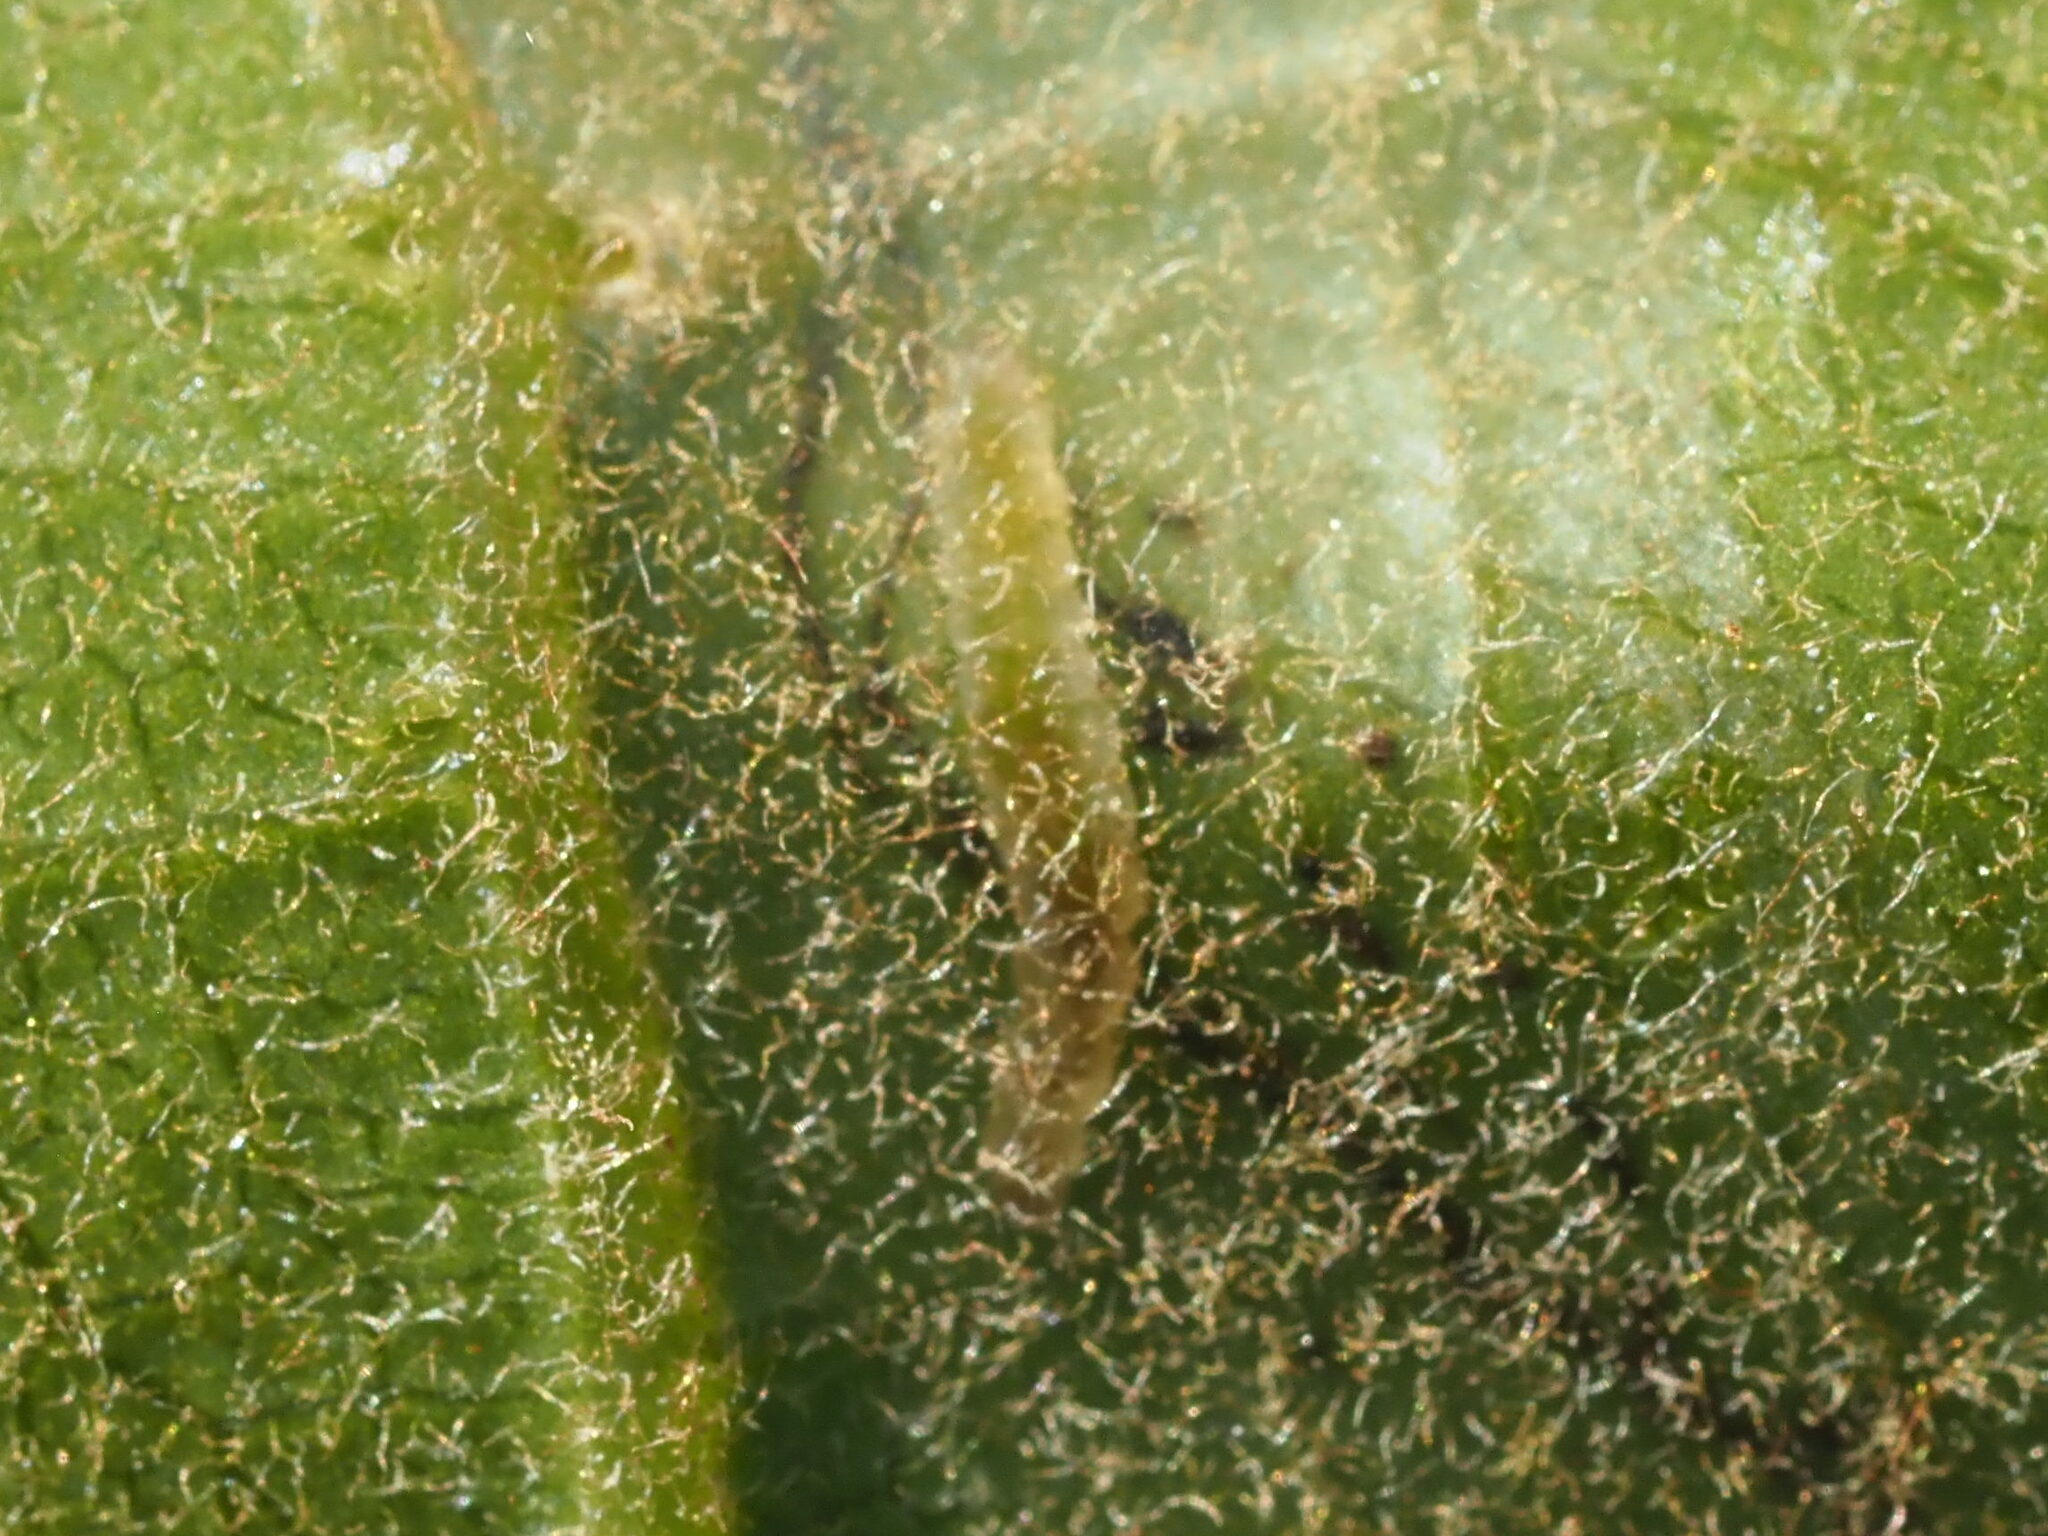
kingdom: Animalia
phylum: Arthropoda
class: Insecta
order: Lepidoptera
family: Gracillariidae
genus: Ketapangia
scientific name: Ketapangia leucochorda
